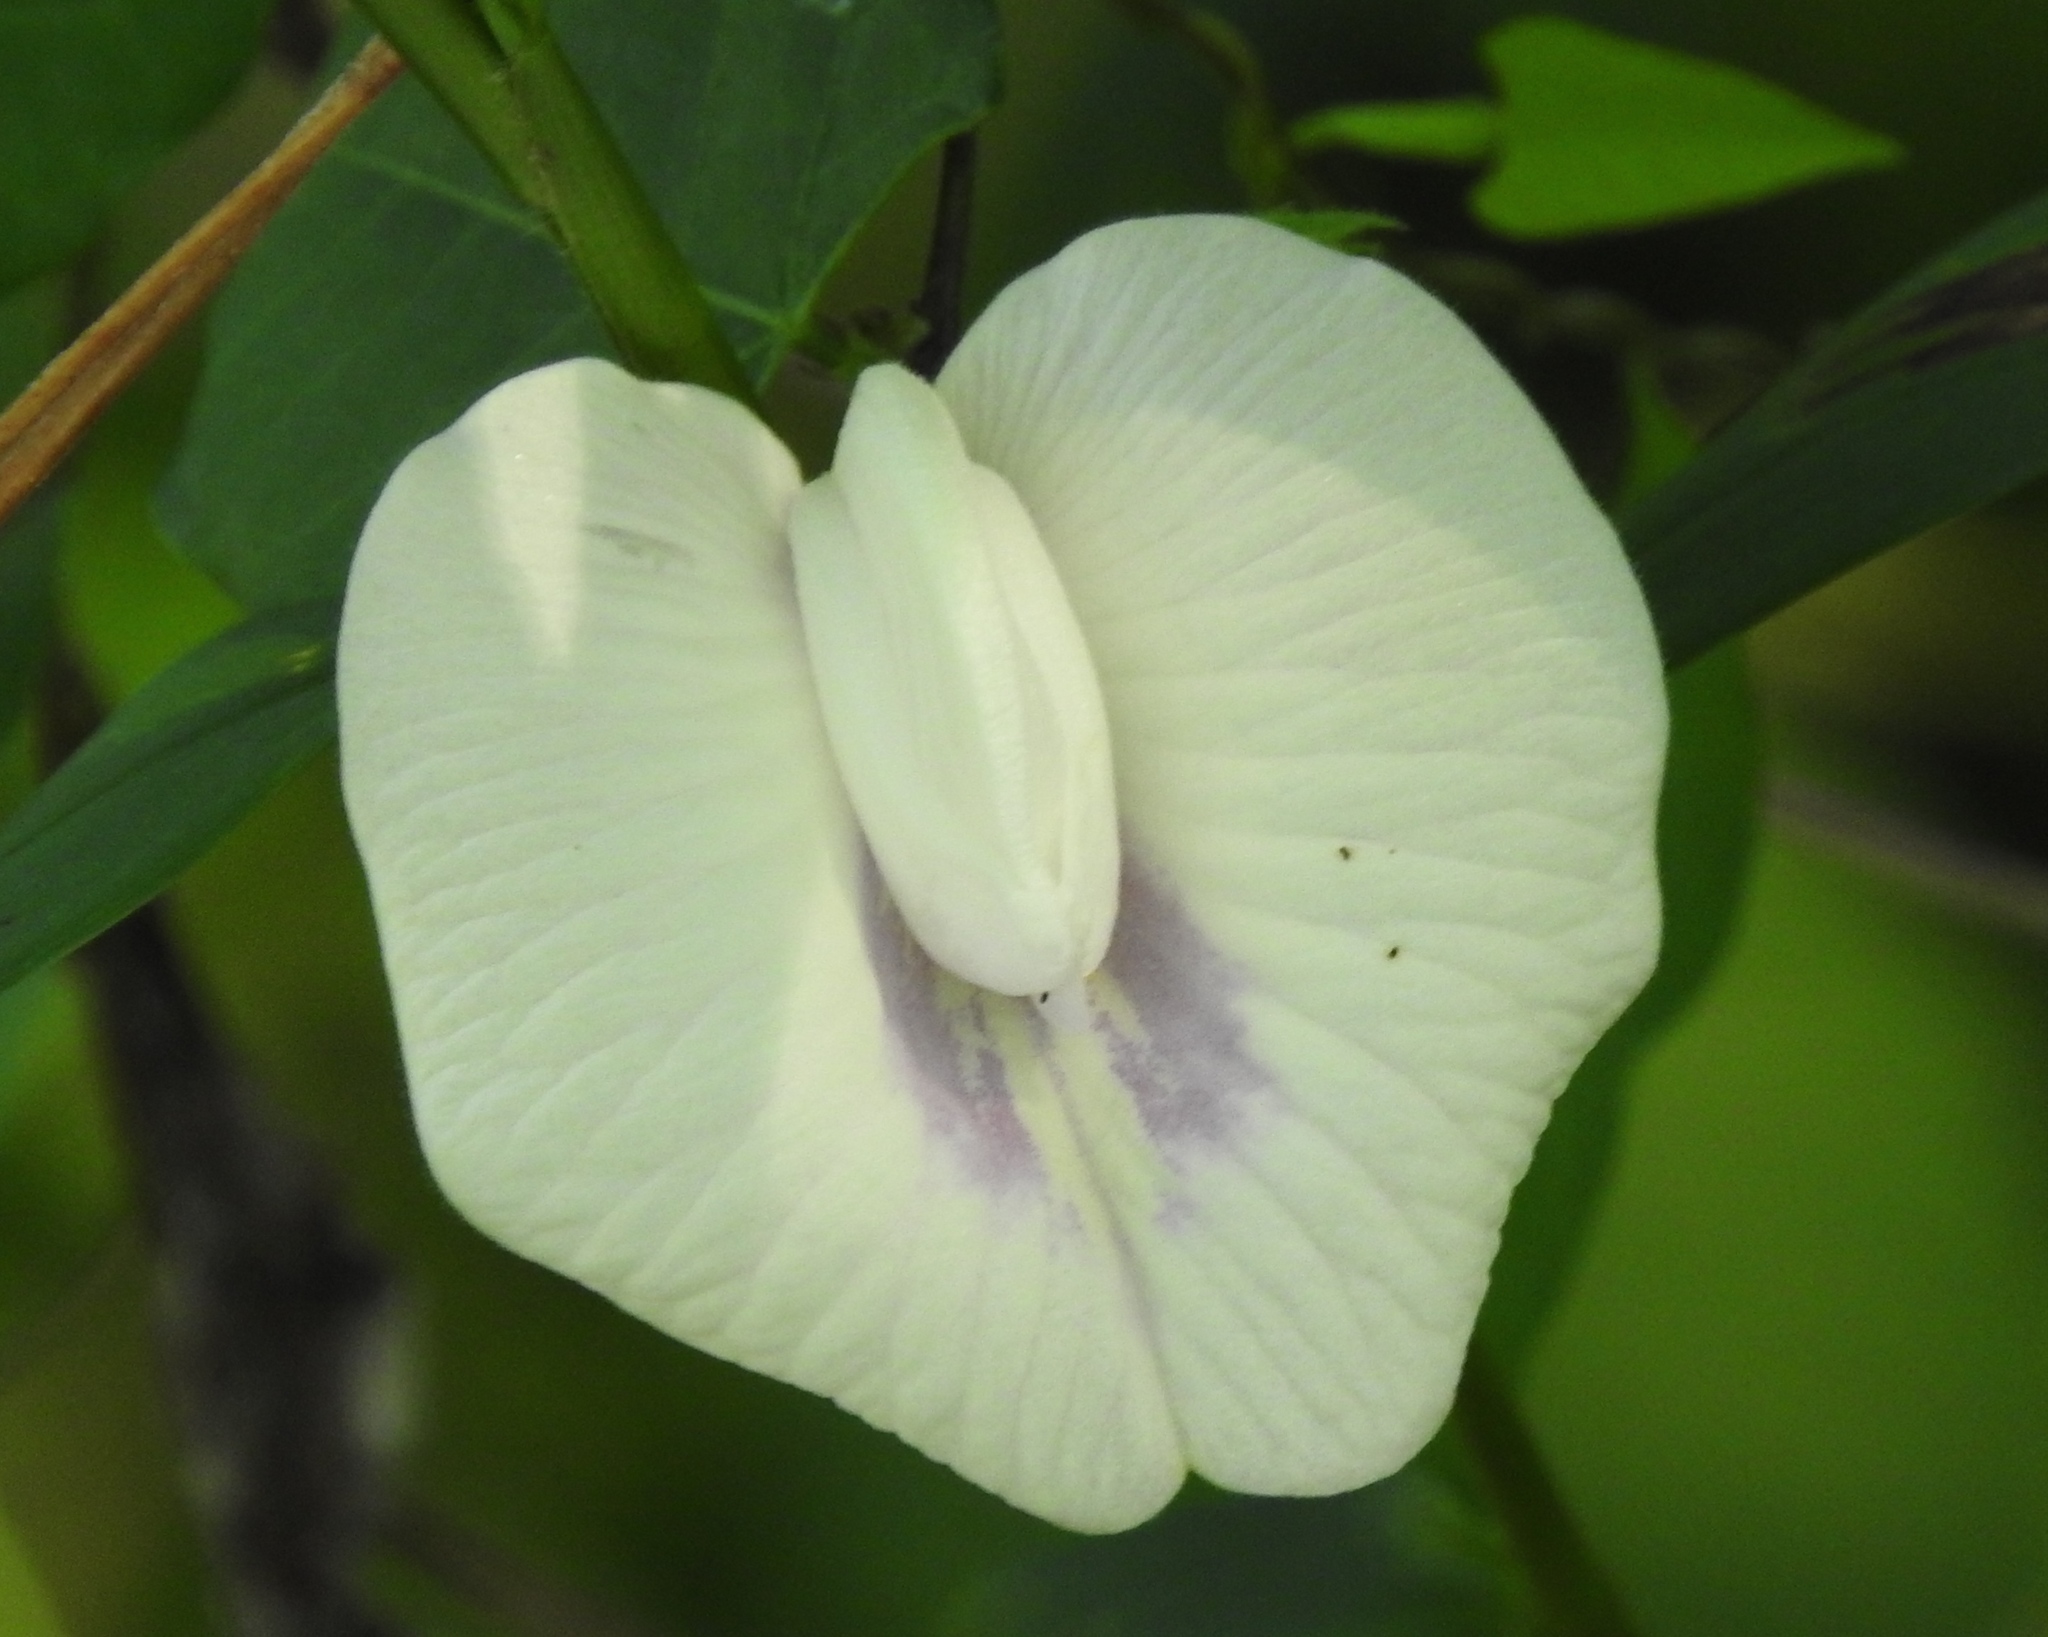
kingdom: Plantae
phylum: Tracheophyta
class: Magnoliopsida
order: Fabales
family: Fabaceae
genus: Centrosema
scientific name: Centrosema sagittatum
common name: Arrowleaf butterfly pea
